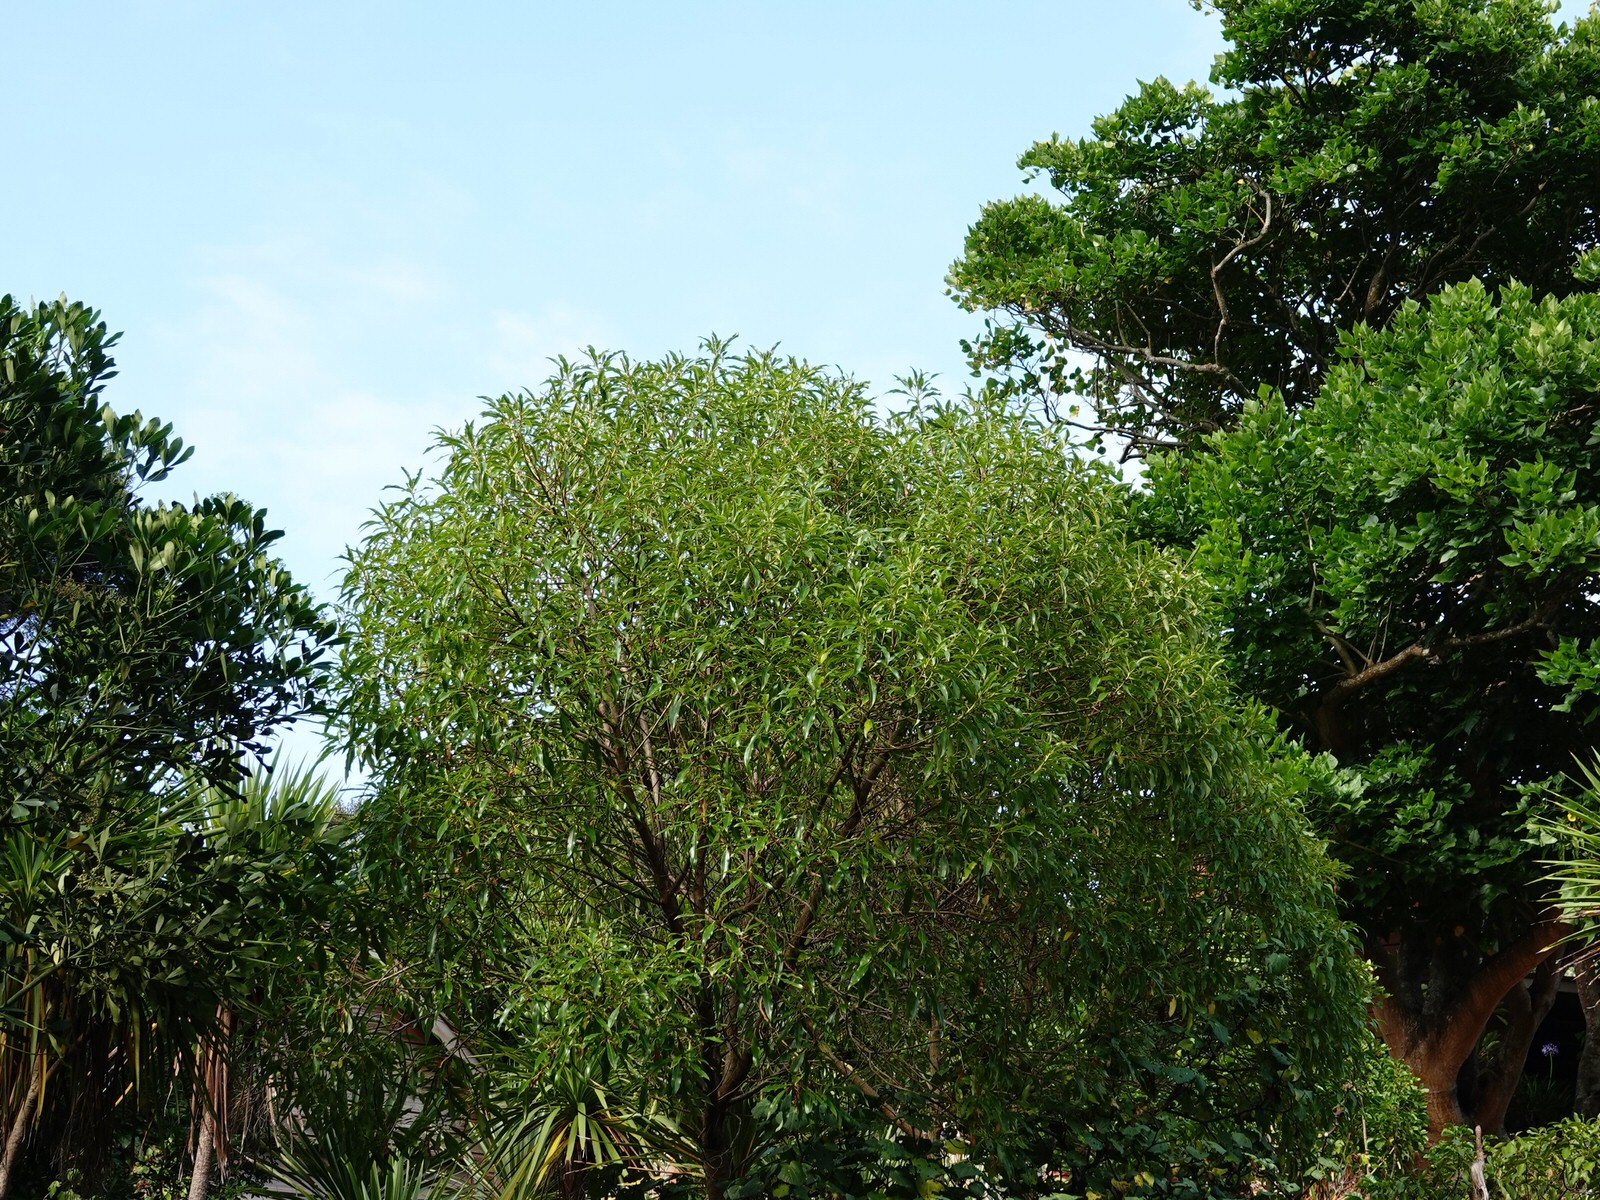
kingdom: Animalia
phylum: Chordata
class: Aves
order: Columbiformes
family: Columbidae
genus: Hemiphaga
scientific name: Hemiphaga novaeseelandiae
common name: New zealand pigeon
